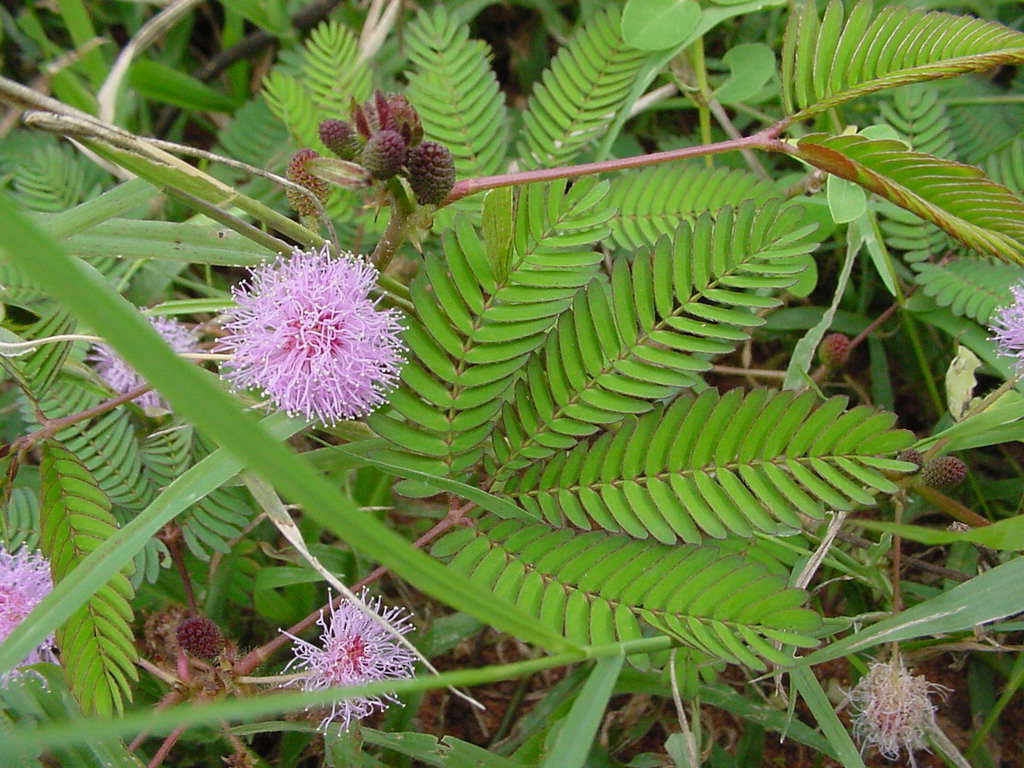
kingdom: Plantae
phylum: Tracheophyta
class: Magnoliopsida
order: Fabales
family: Fabaceae
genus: Mimosa
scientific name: Mimosa pudica
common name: Sensitive plant
